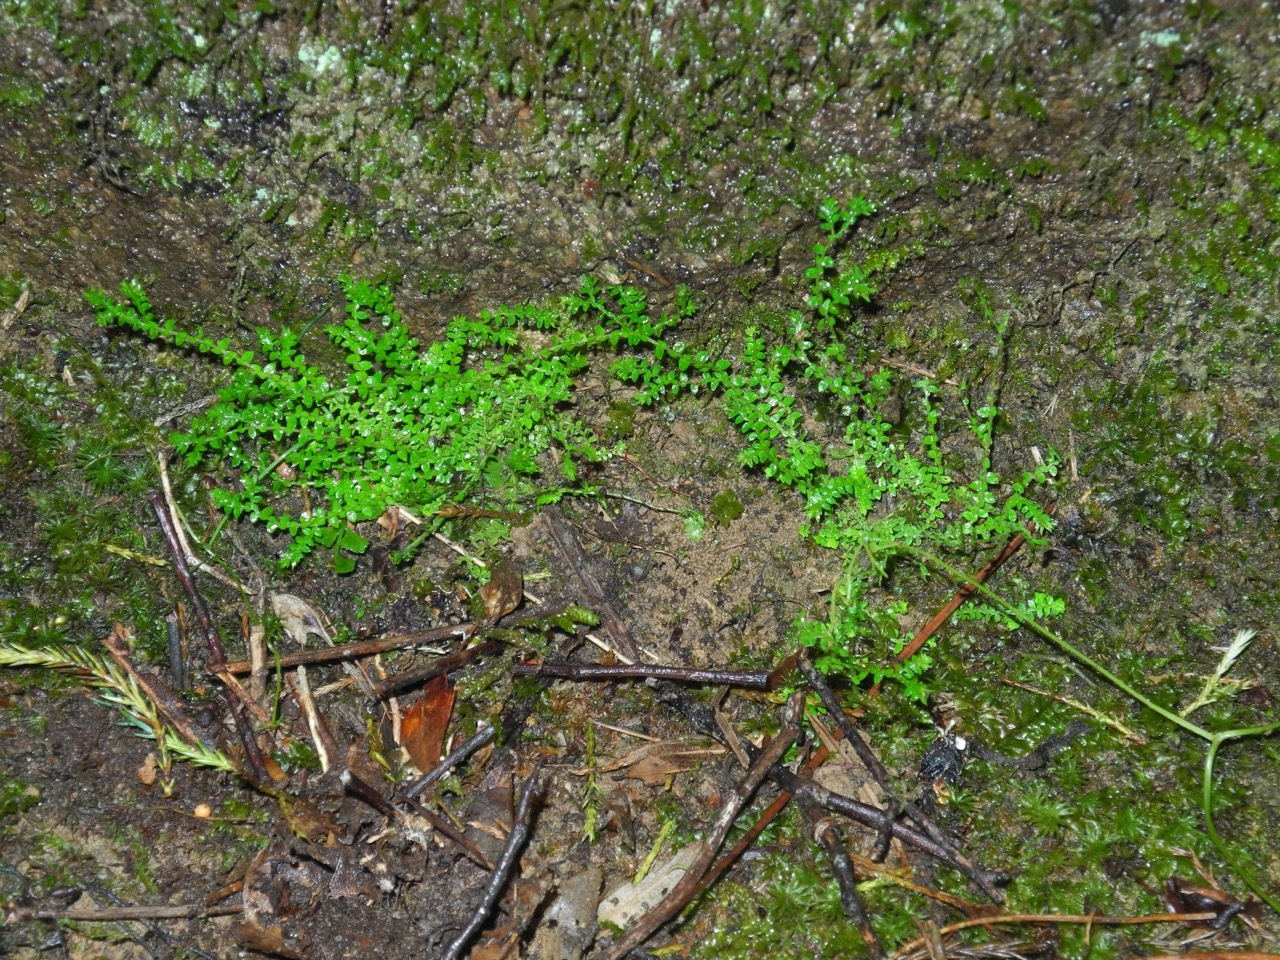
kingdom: Plantae
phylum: Tracheophyta
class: Lycopodiopsida
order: Selaginellales
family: Selaginellaceae
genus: Selaginella
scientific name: Selaginella apoda
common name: Creeping spikemoss
